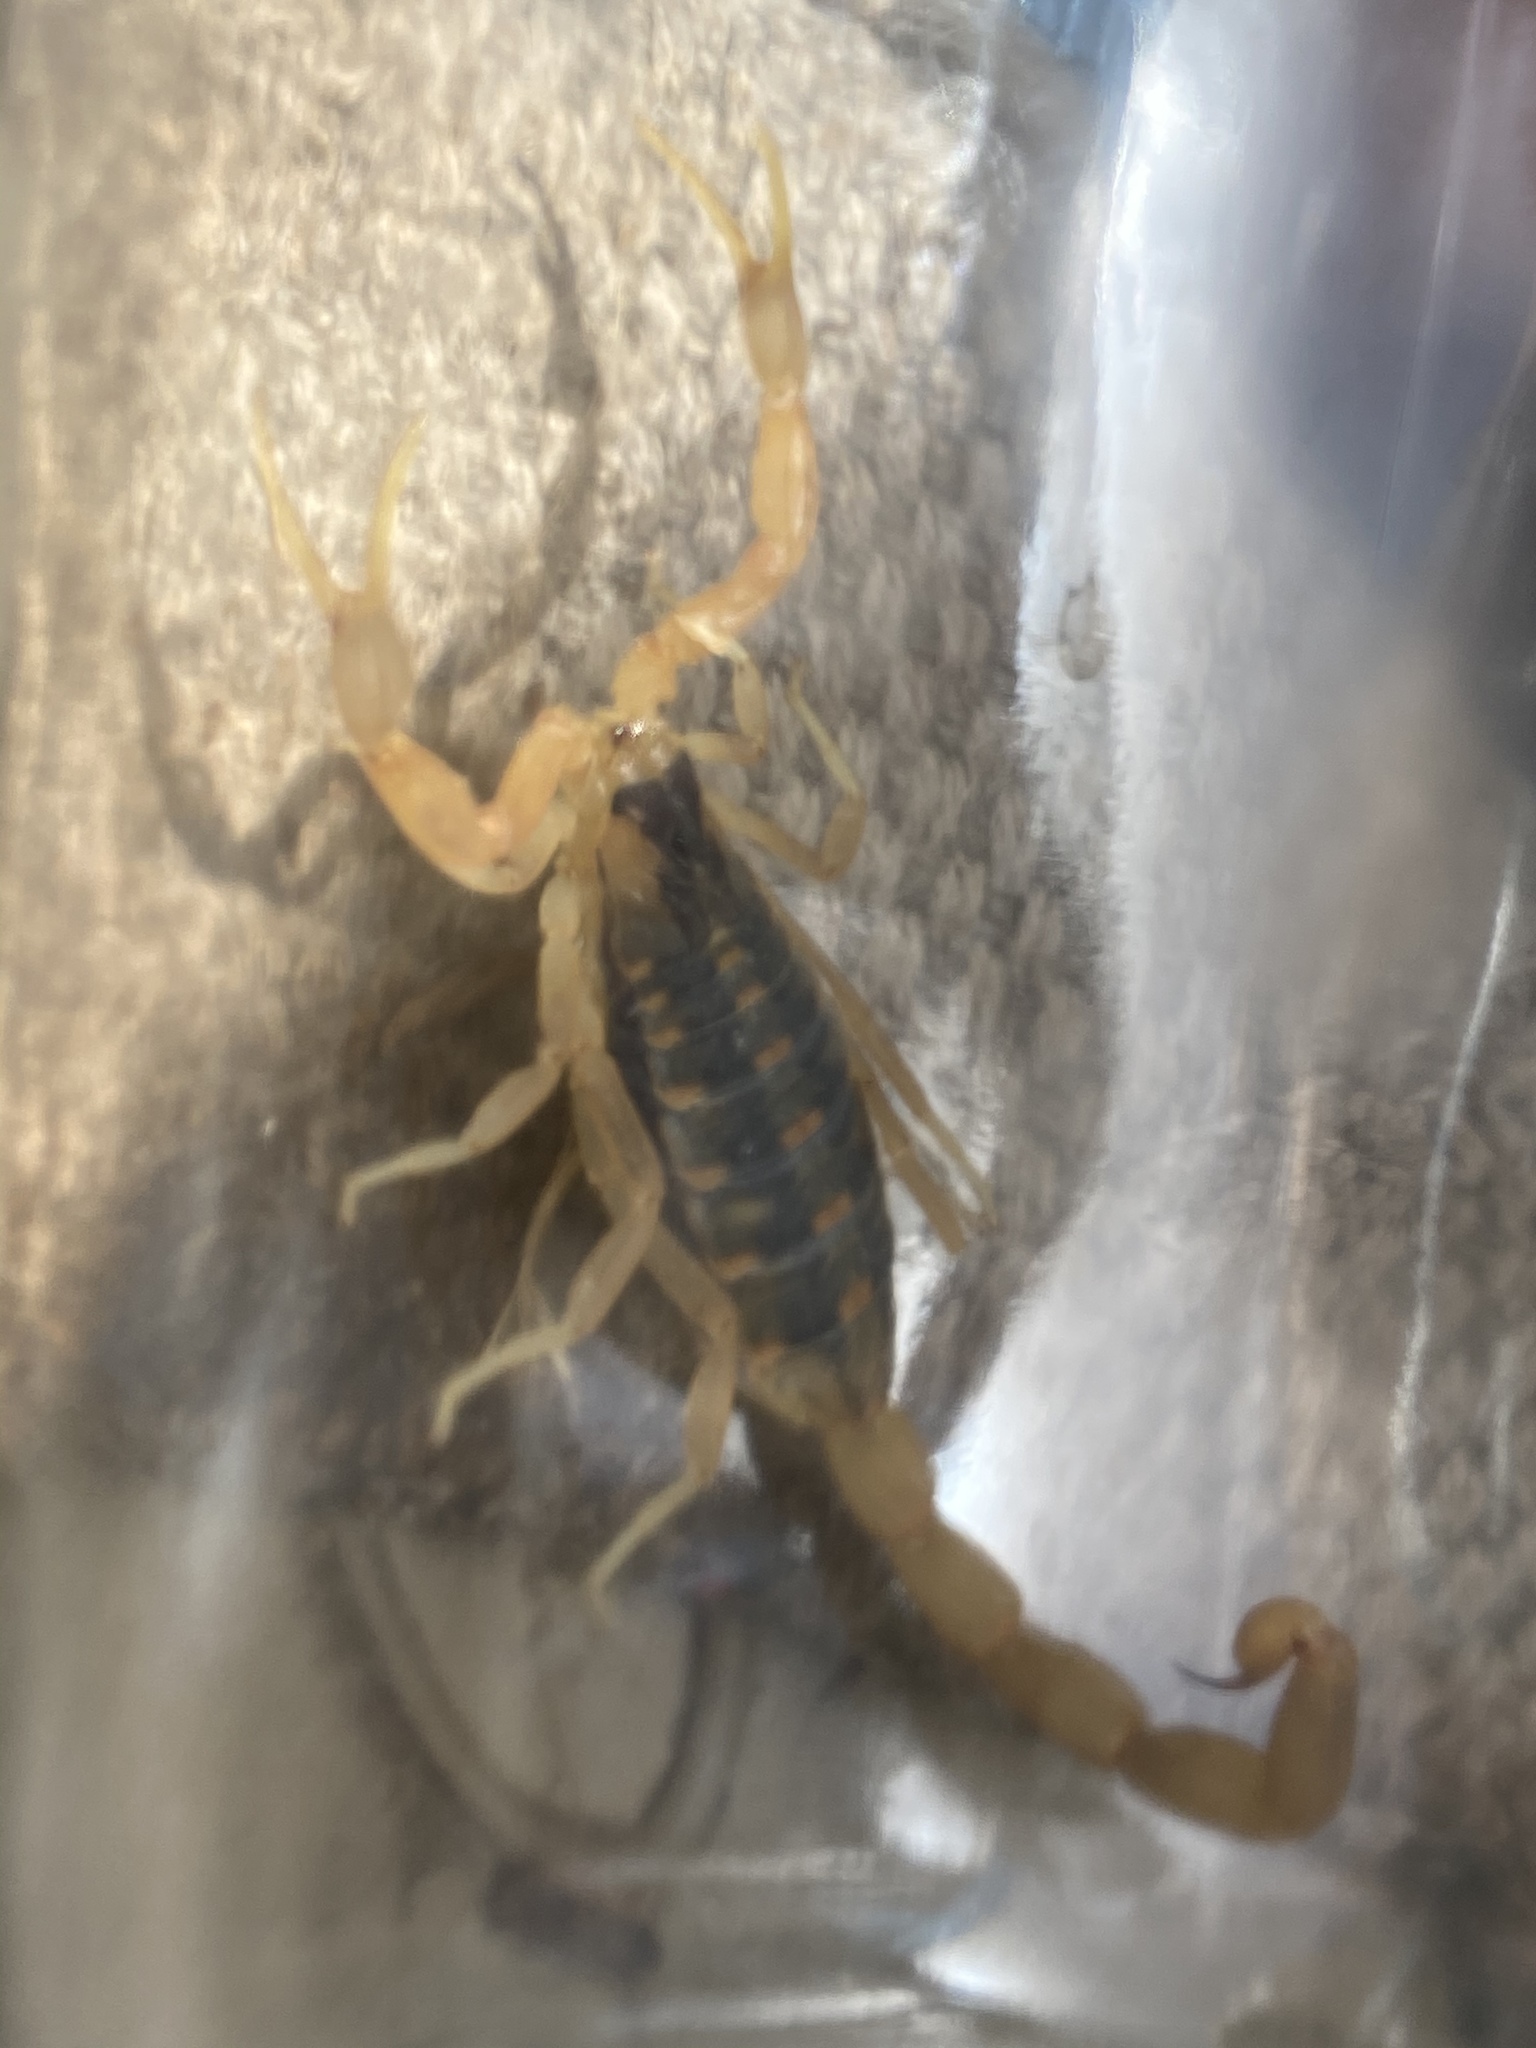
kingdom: Animalia
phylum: Arthropoda
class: Arachnida
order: Scorpiones
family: Buthidae
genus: Centruroides
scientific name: Centruroides vittatus
